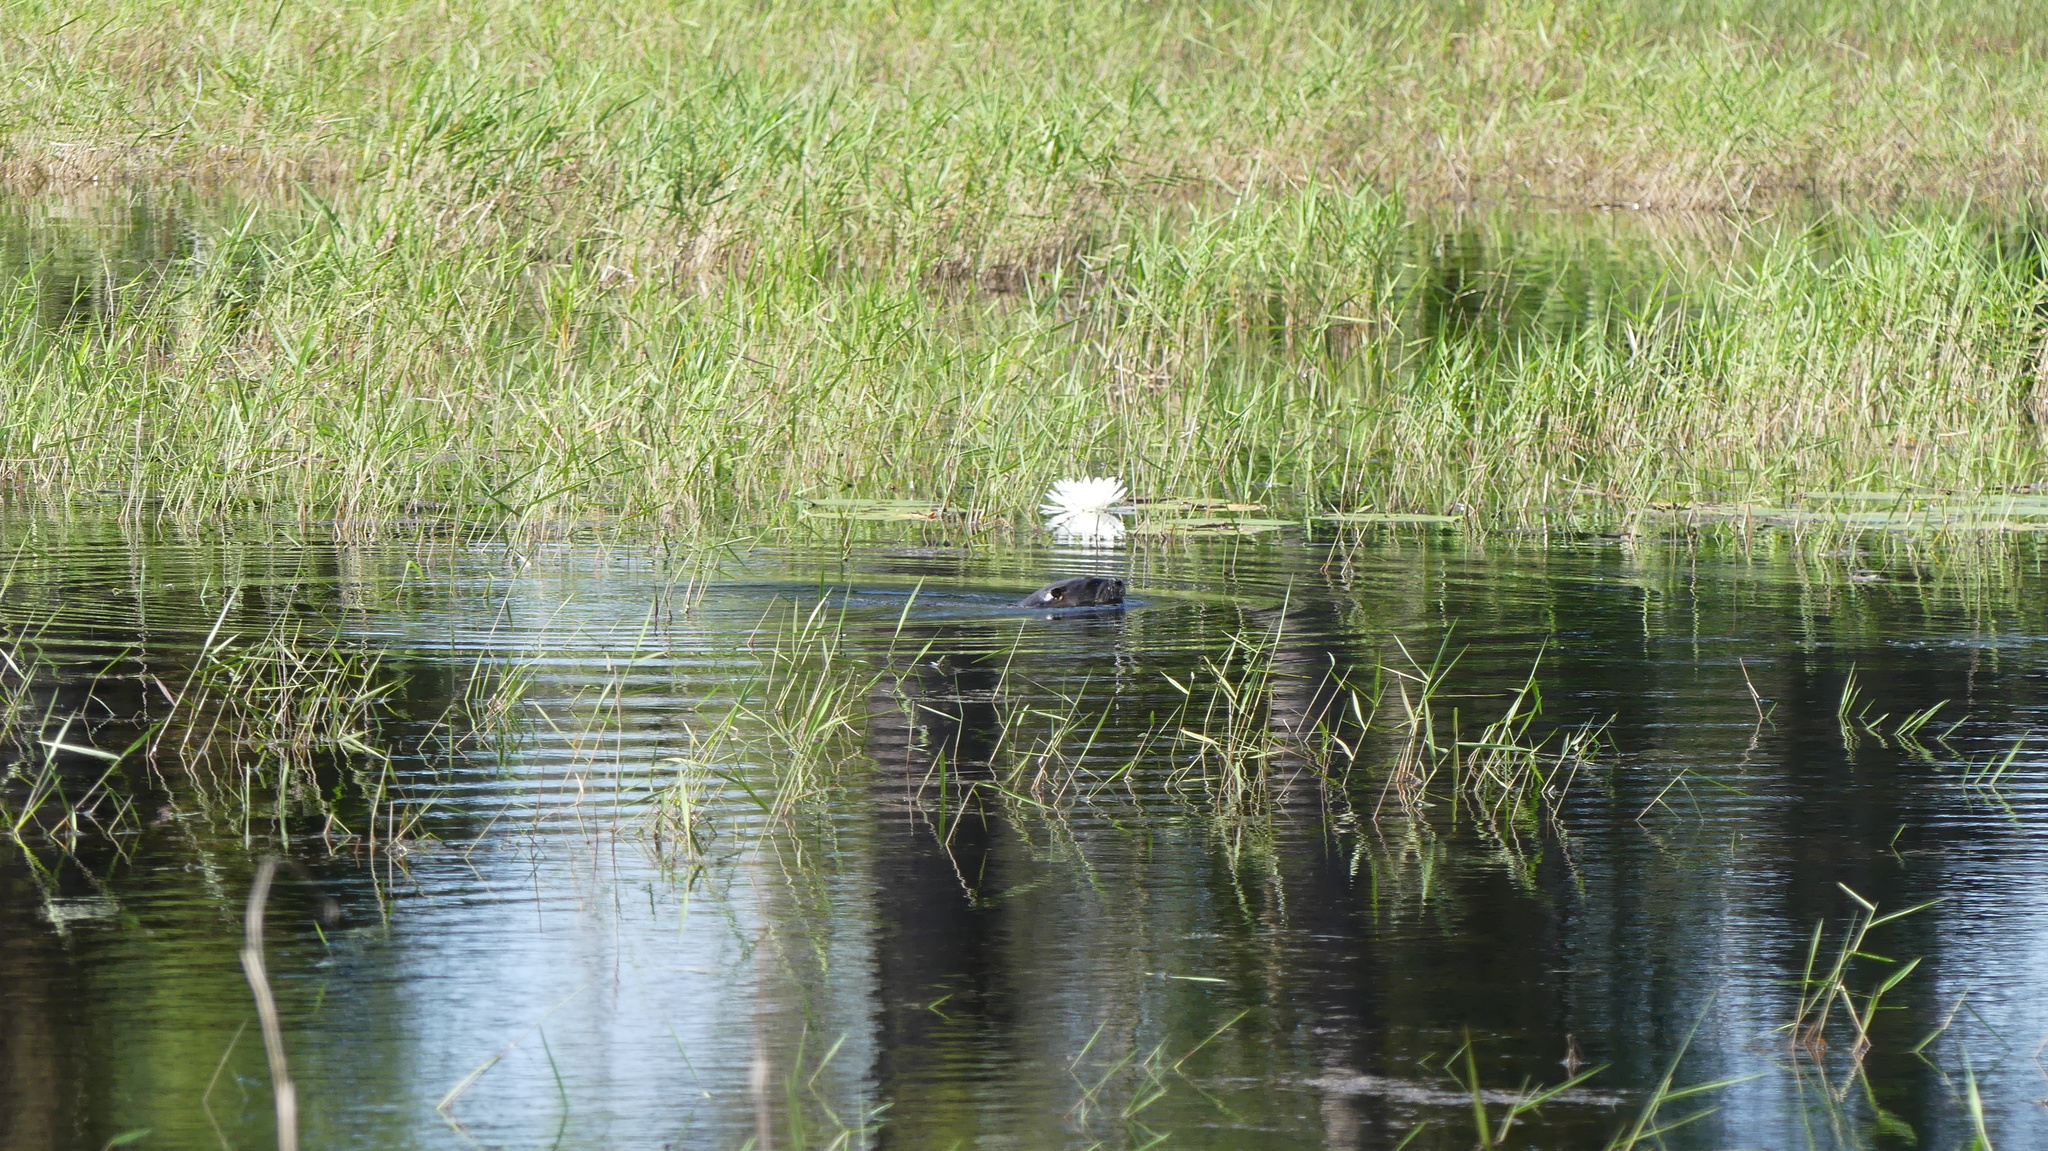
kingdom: Animalia
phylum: Chordata
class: Mammalia
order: Carnivora
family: Mustelidae
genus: Lontra
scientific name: Lontra canadensis
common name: North american river otter
